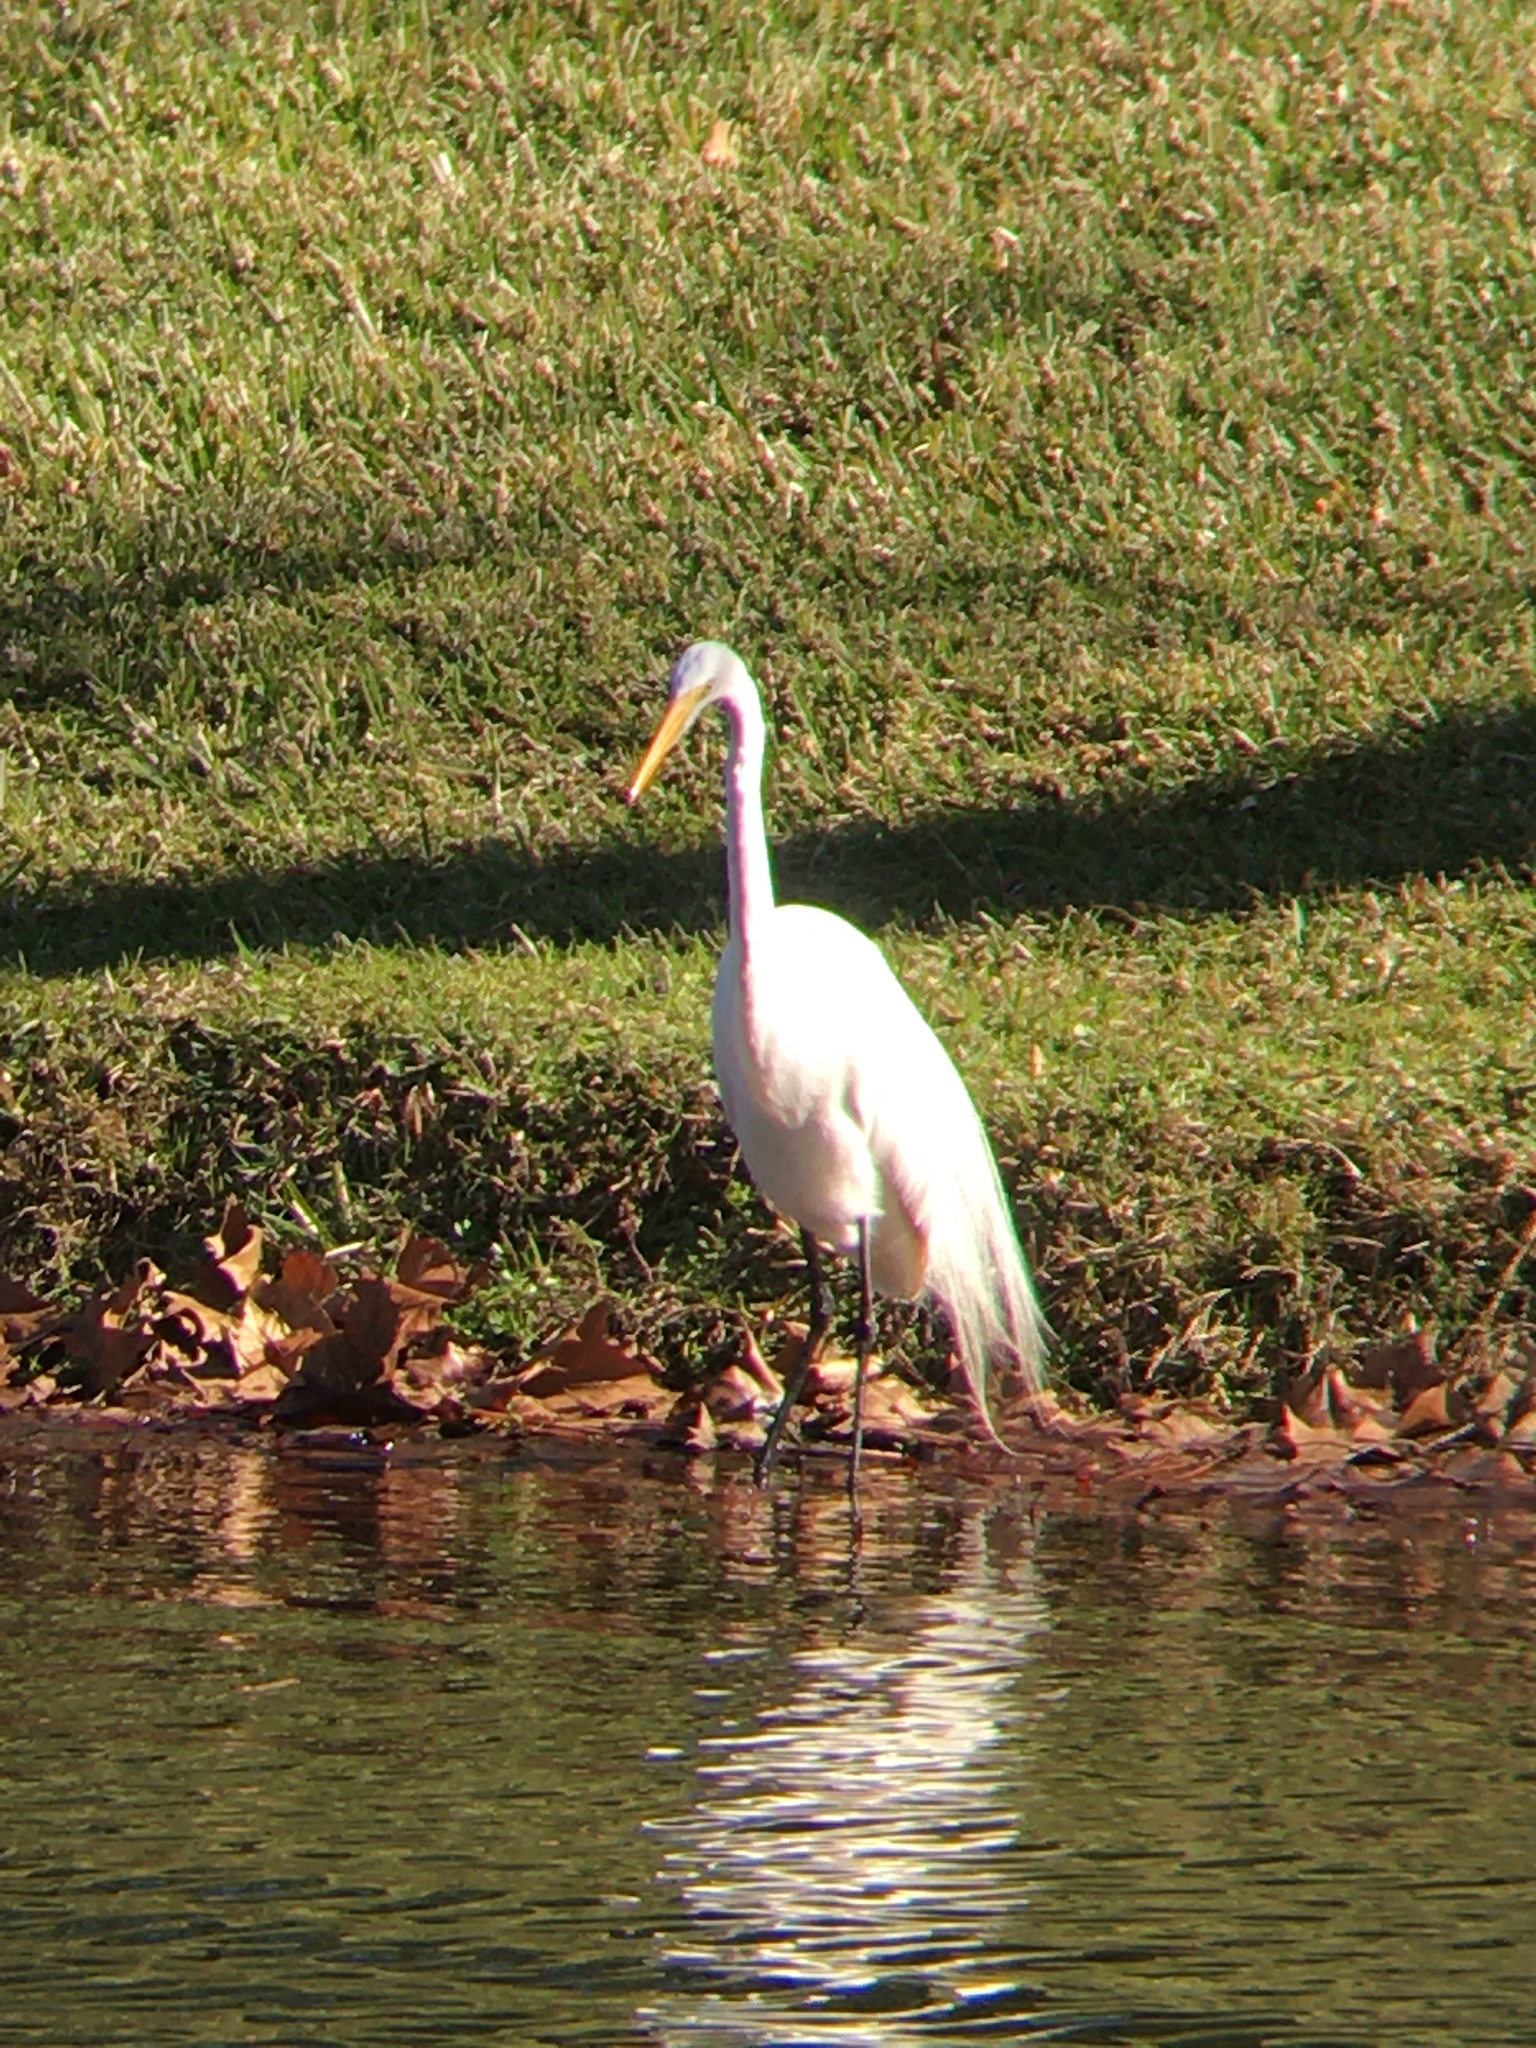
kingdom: Animalia
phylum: Chordata
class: Aves
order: Pelecaniformes
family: Ardeidae
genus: Ardea
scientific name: Ardea alba
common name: Great egret
